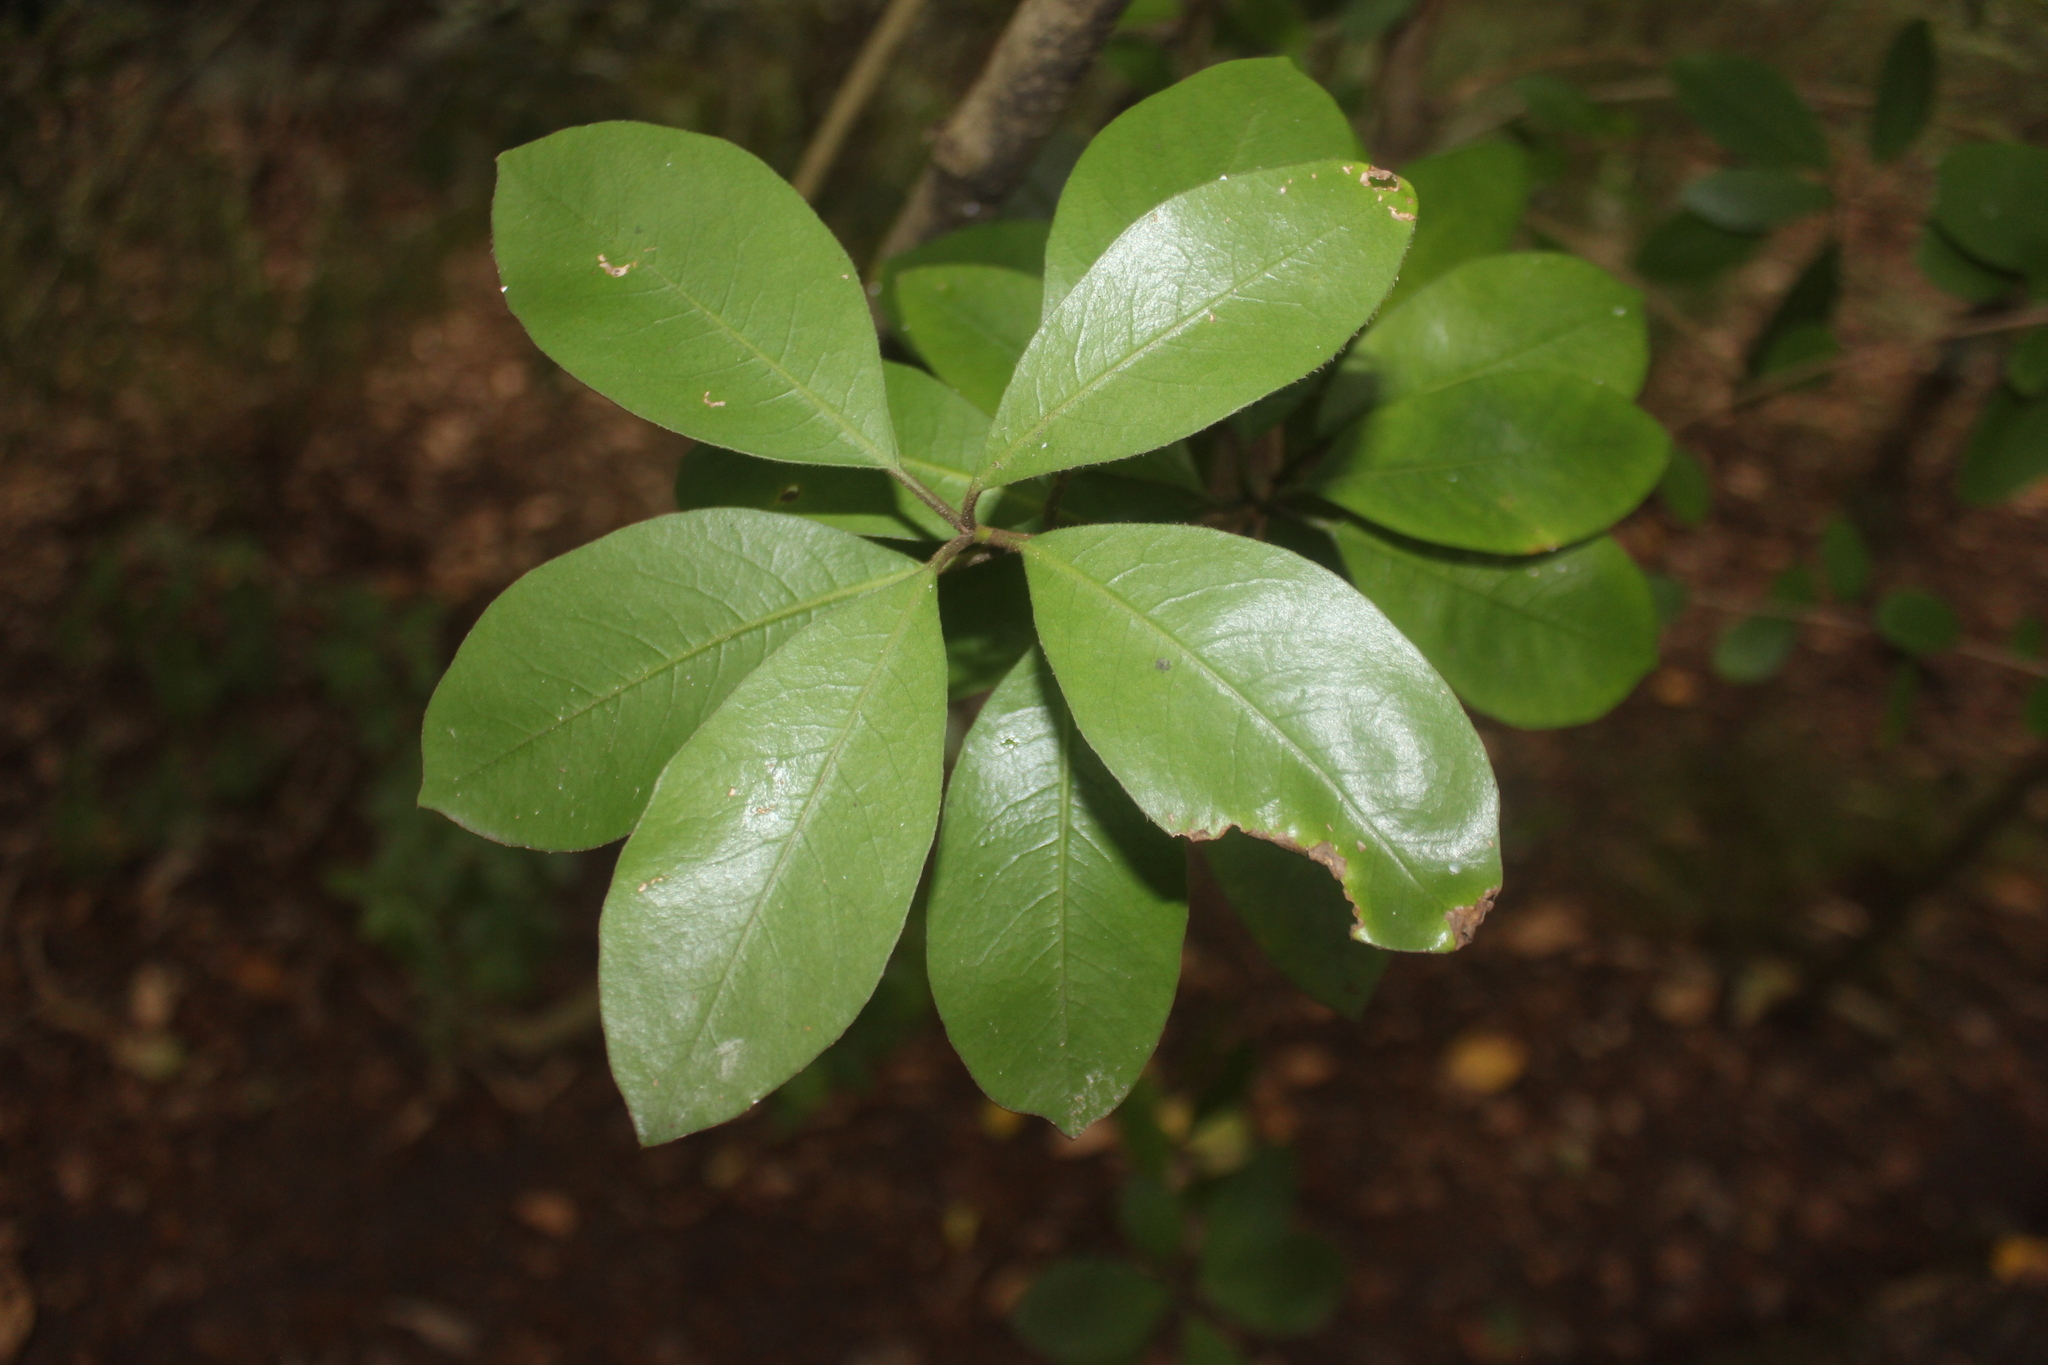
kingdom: Plantae
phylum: Tracheophyta
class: Magnoliopsida
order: Apiales
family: Pittosporaceae
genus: Pittosporum
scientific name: Pittosporum umbellatum
